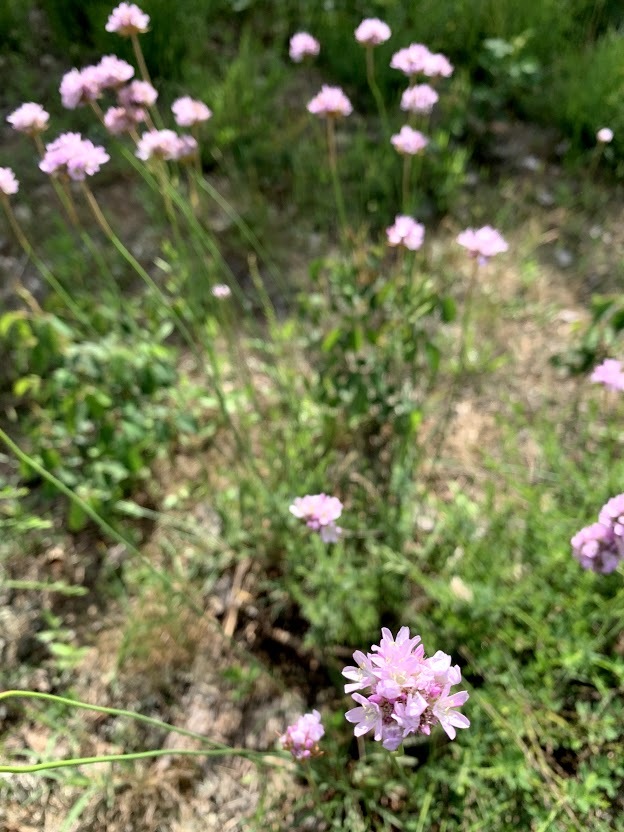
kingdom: Plantae
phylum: Tracheophyta
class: Magnoliopsida
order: Caryophyllales
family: Plumbaginaceae
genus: Armeria
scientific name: Armeria arenaria
